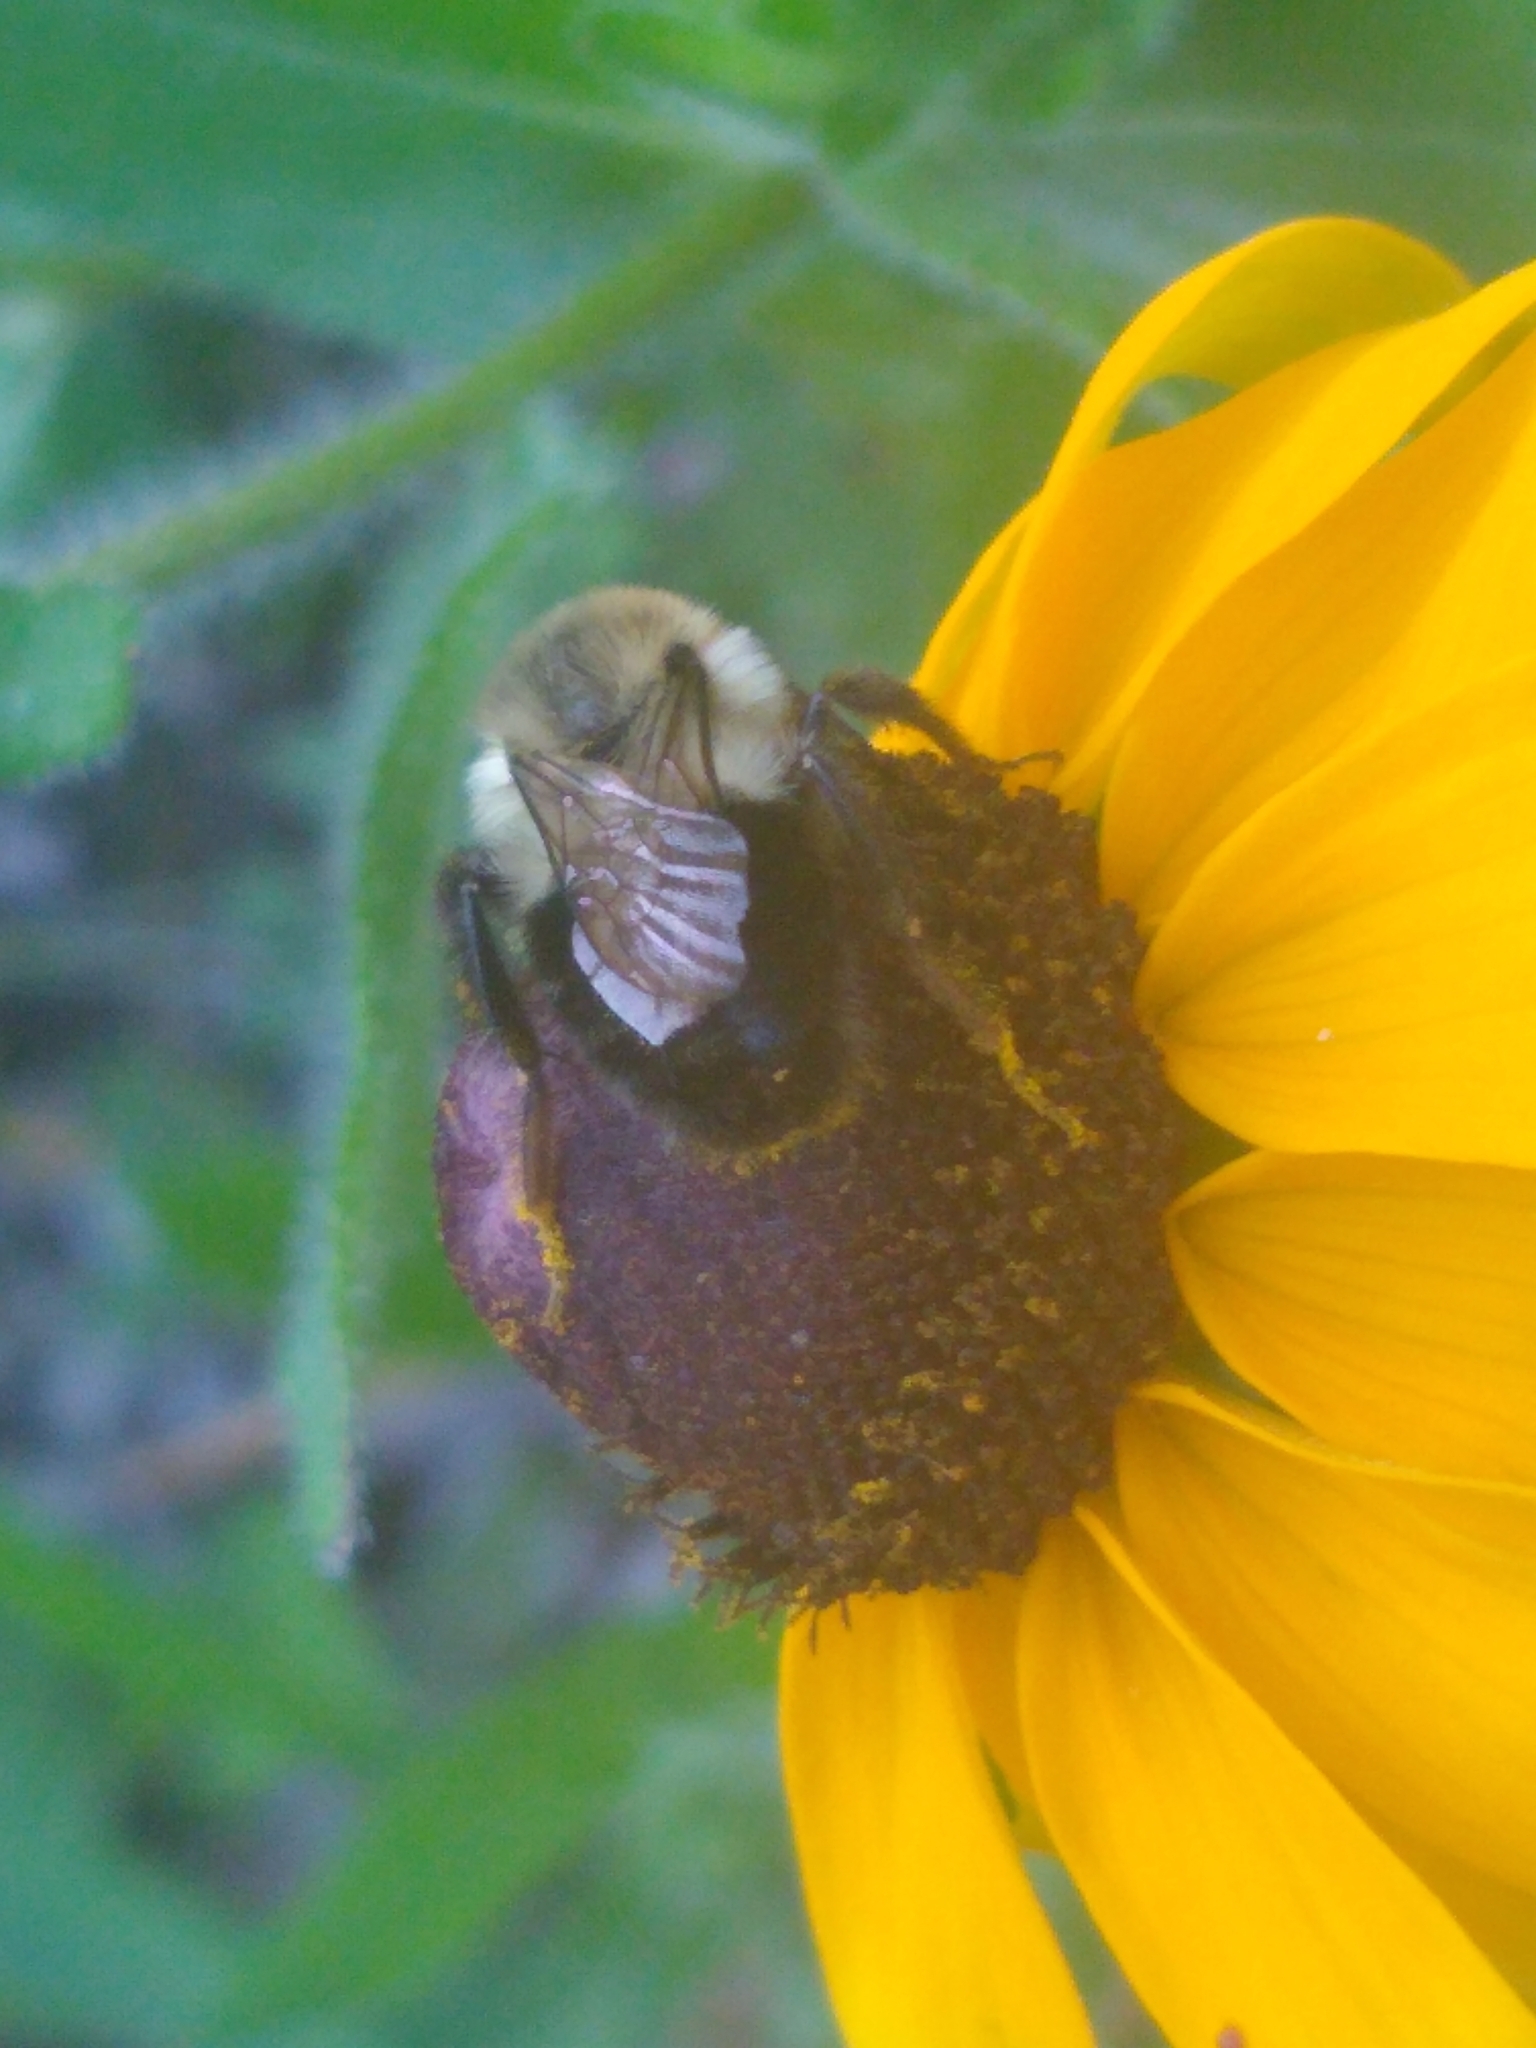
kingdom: Animalia
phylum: Arthropoda
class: Insecta
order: Hymenoptera
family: Apidae
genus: Bombus
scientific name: Bombus impatiens
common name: Common eastern bumble bee
